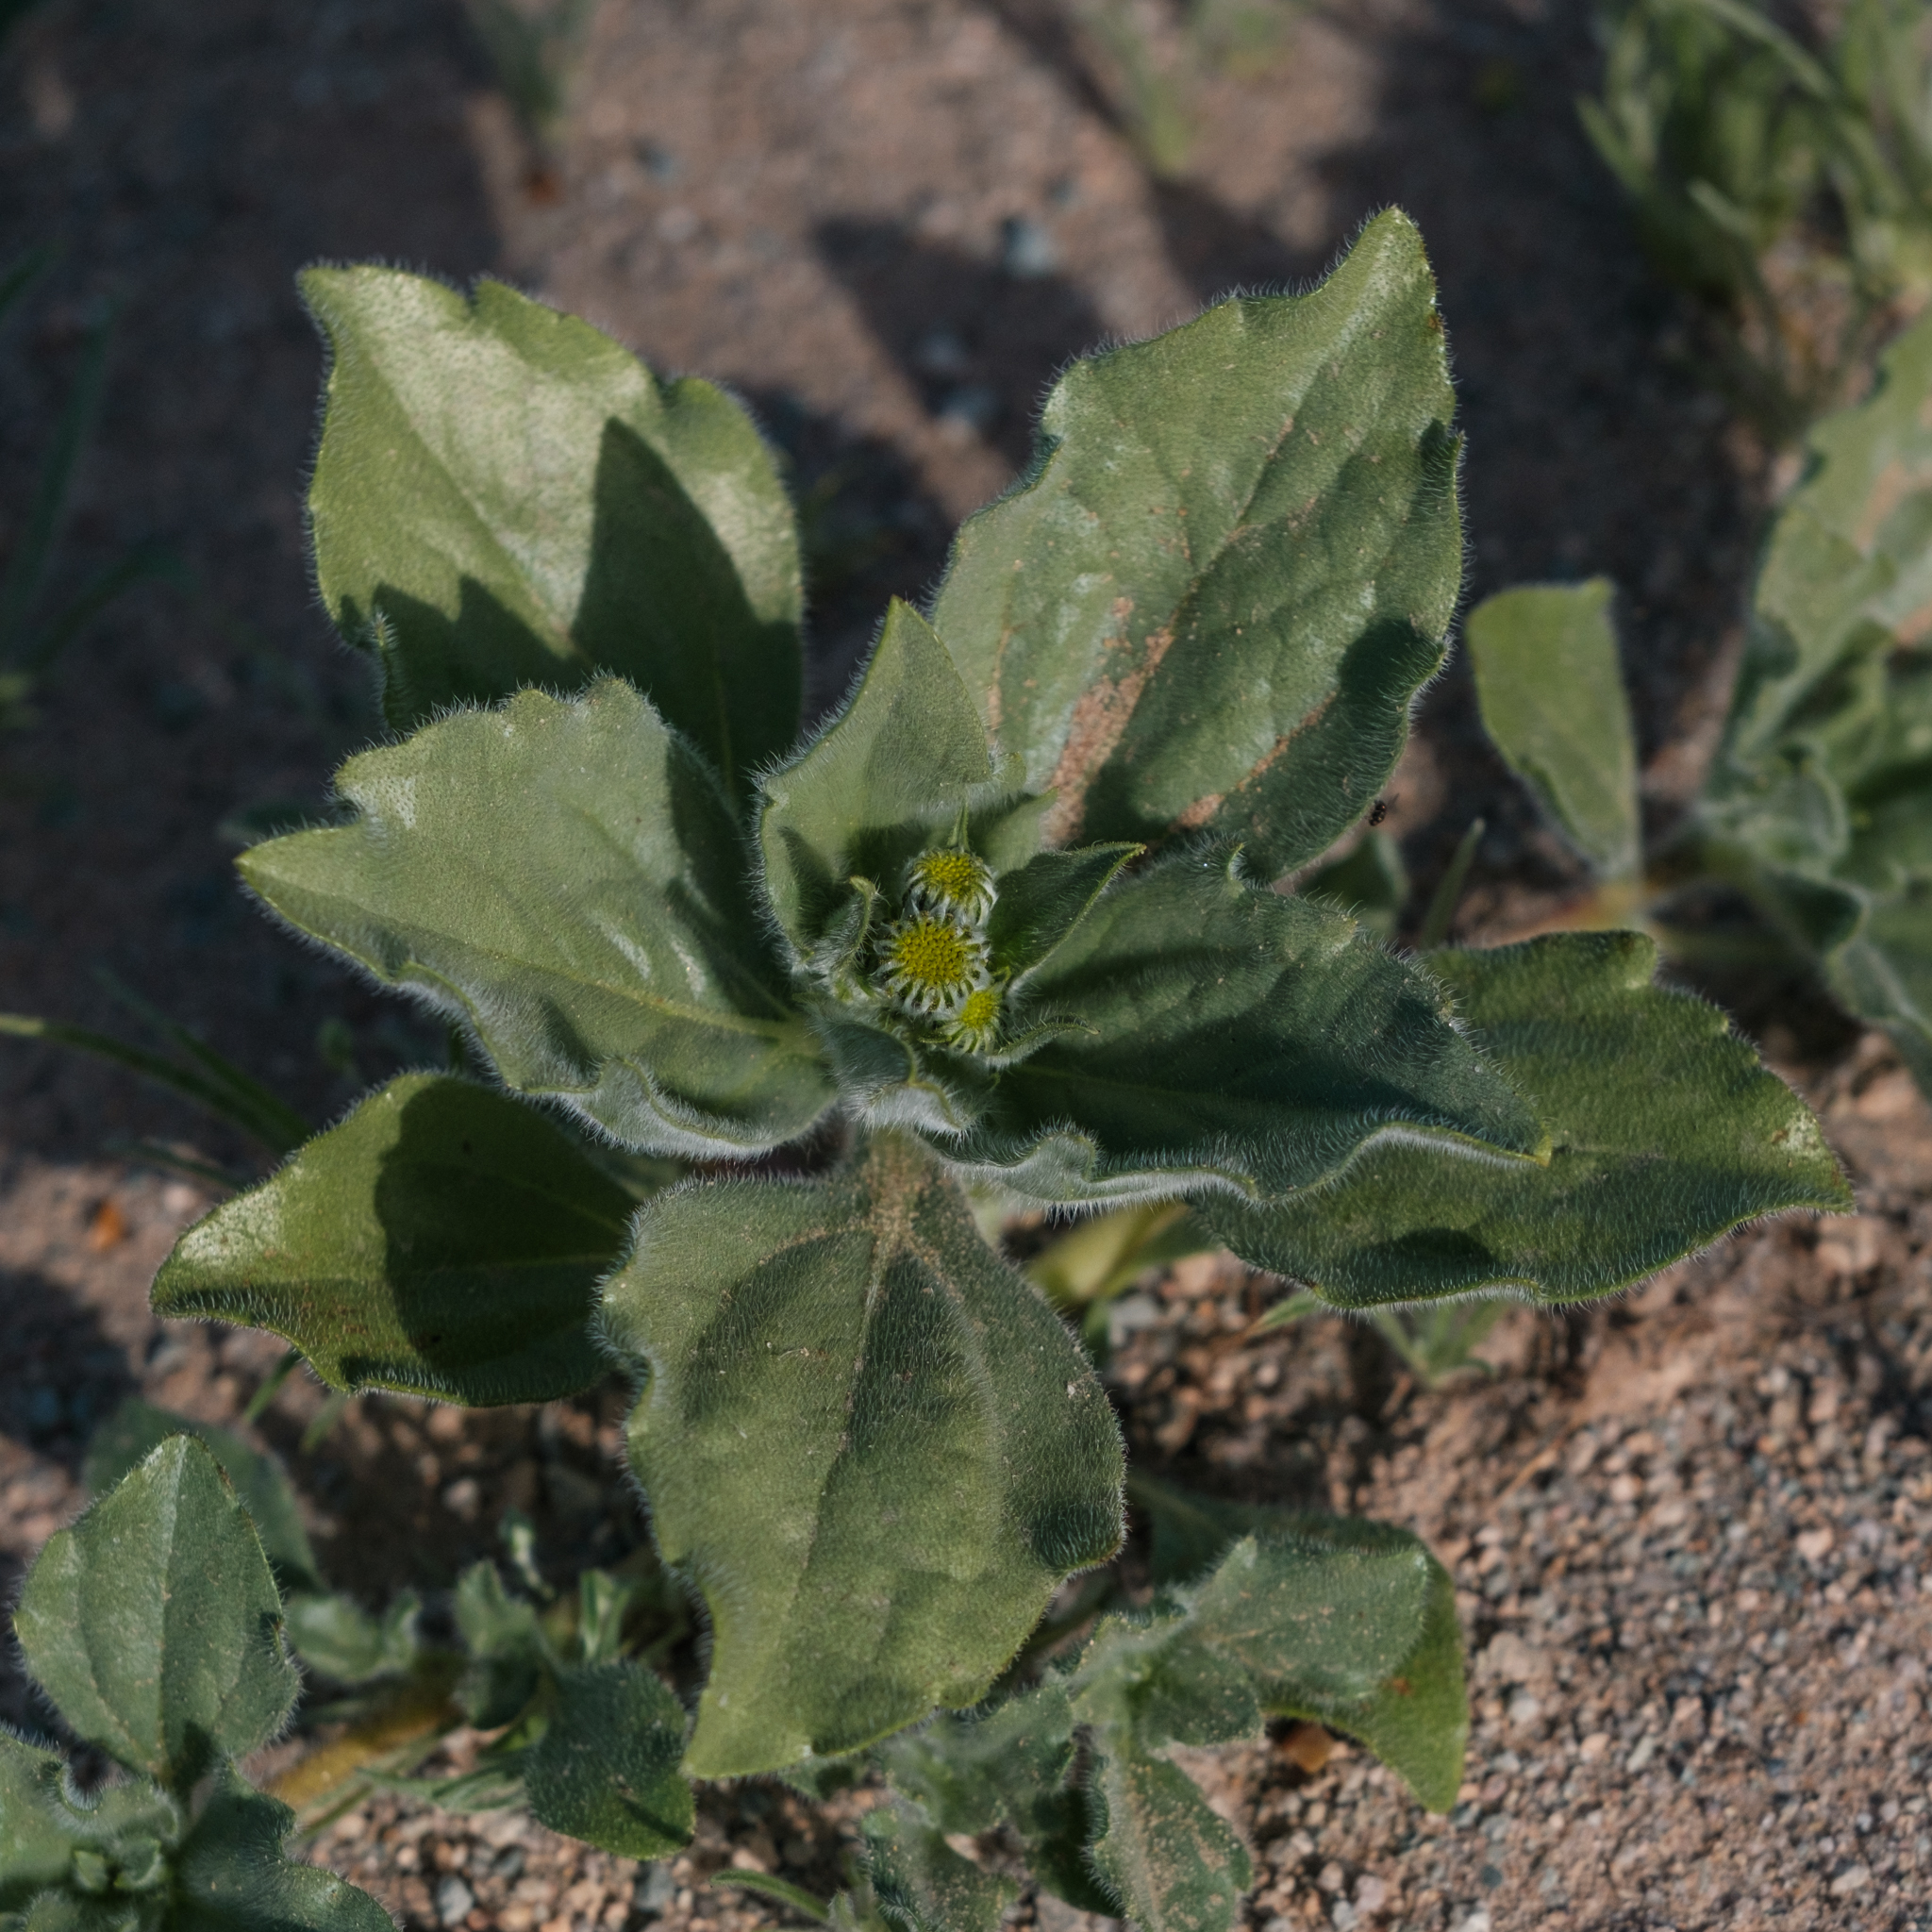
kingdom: Plantae
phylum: Tracheophyta
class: Magnoliopsida
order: Asterales
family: Asteraceae
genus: Geraea
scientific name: Geraea canescens
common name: Desert-gold
